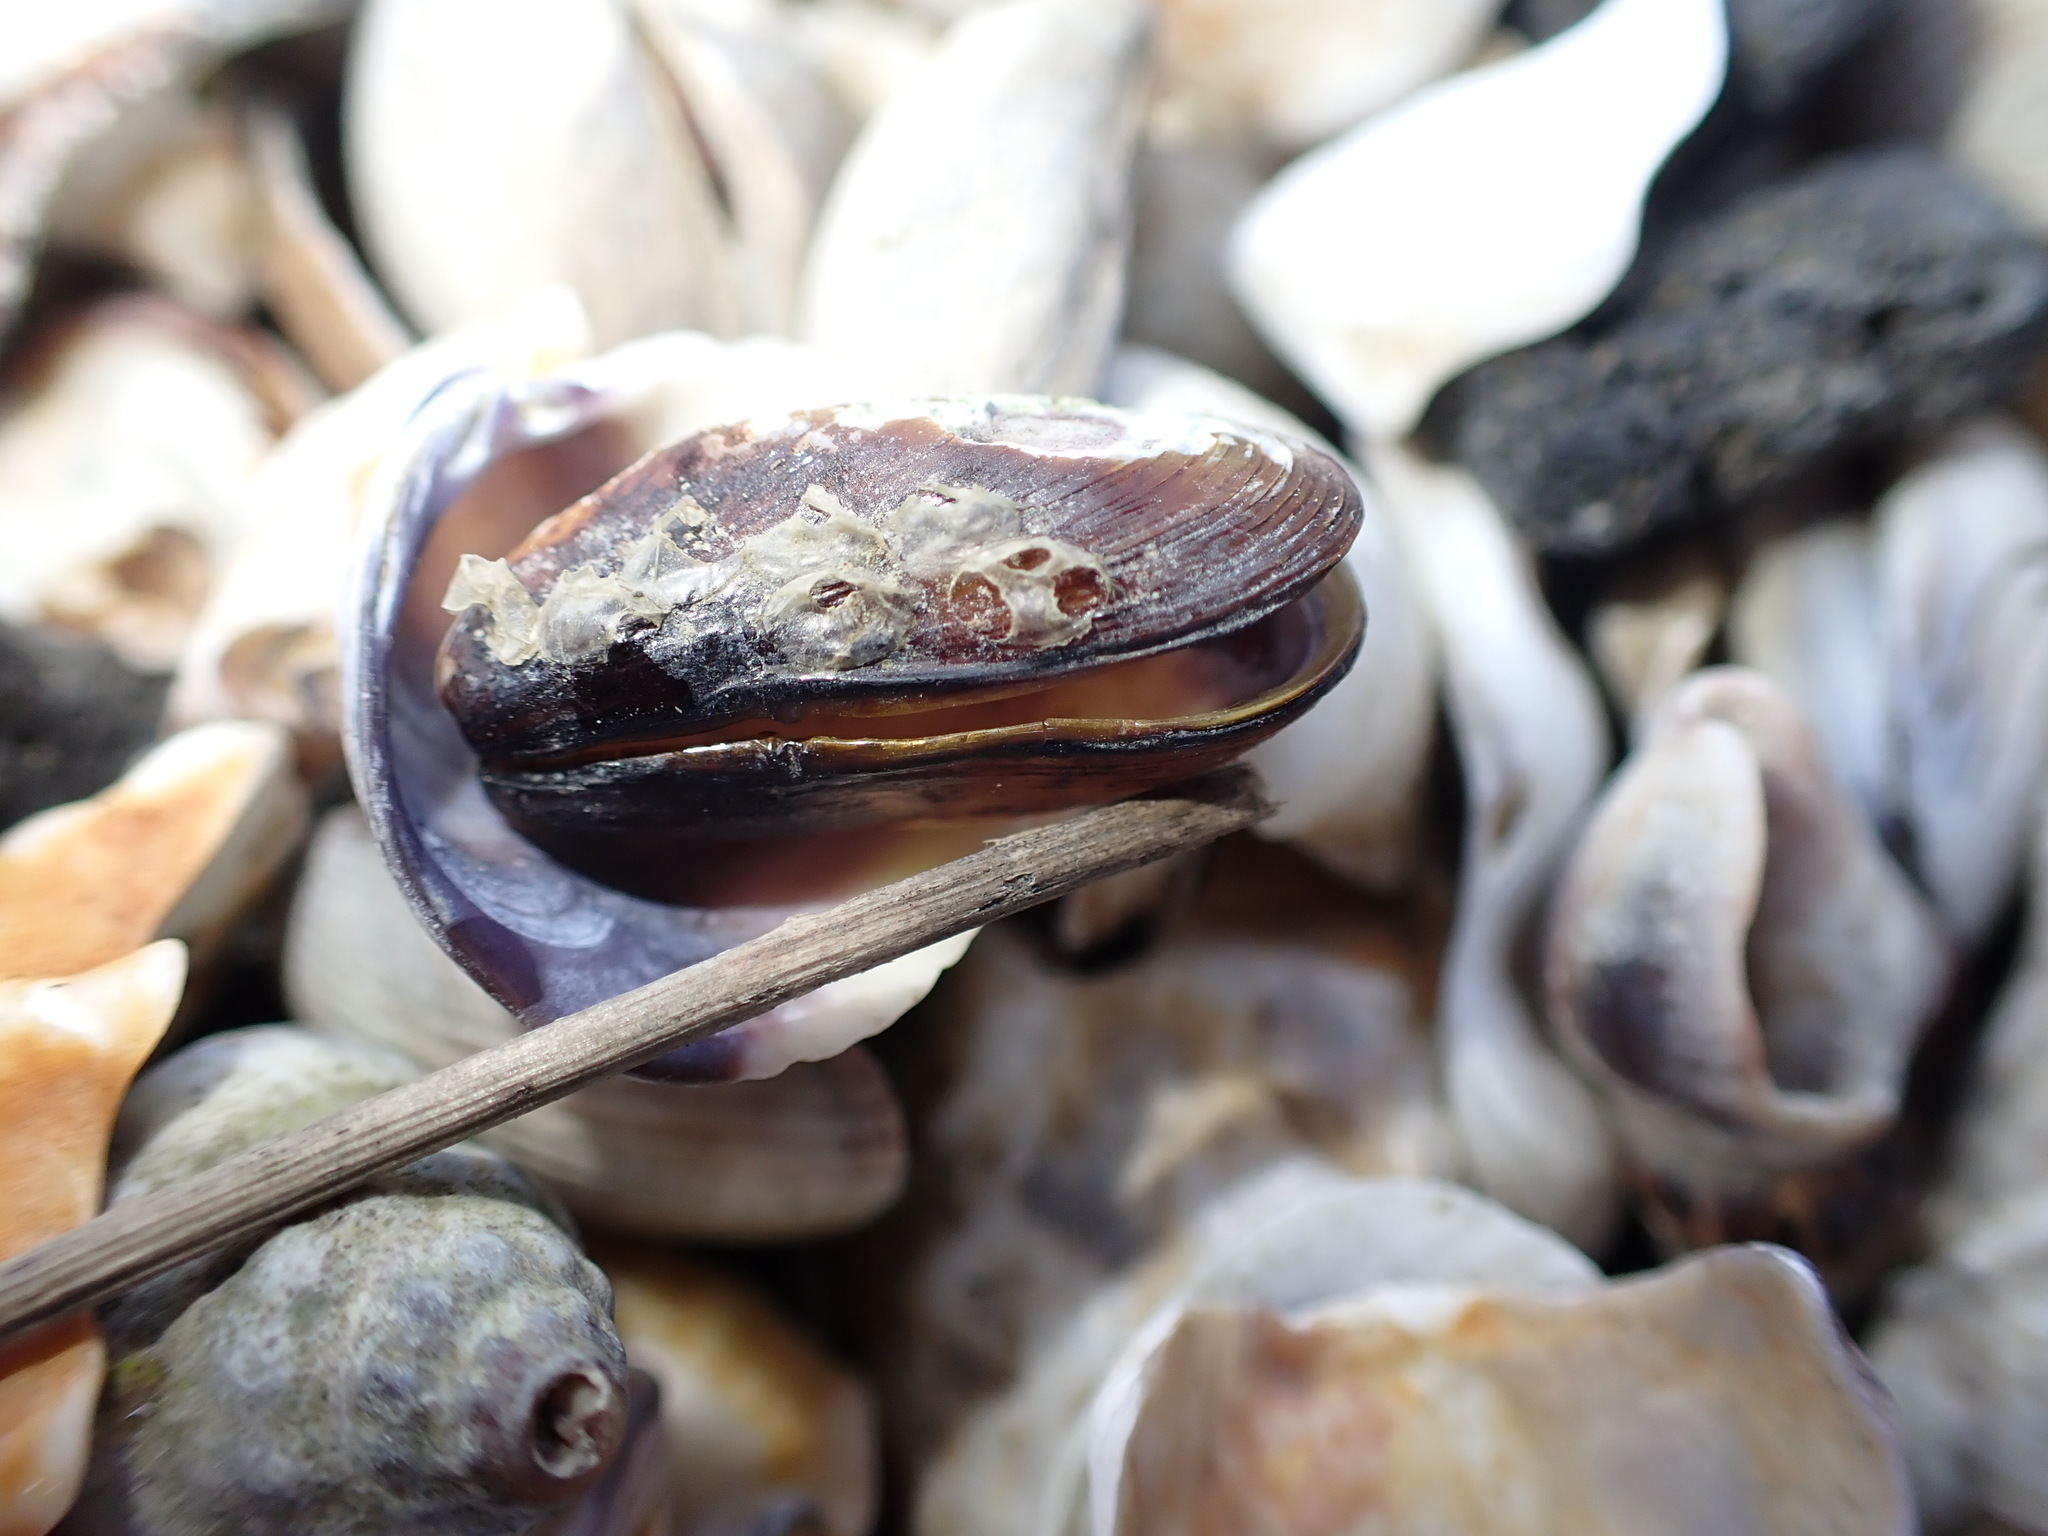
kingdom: Animalia
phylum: Mollusca
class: Bivalvia
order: Mytilida
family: Mytilidae
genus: Xenostrobus
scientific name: Xenostrobus securis
